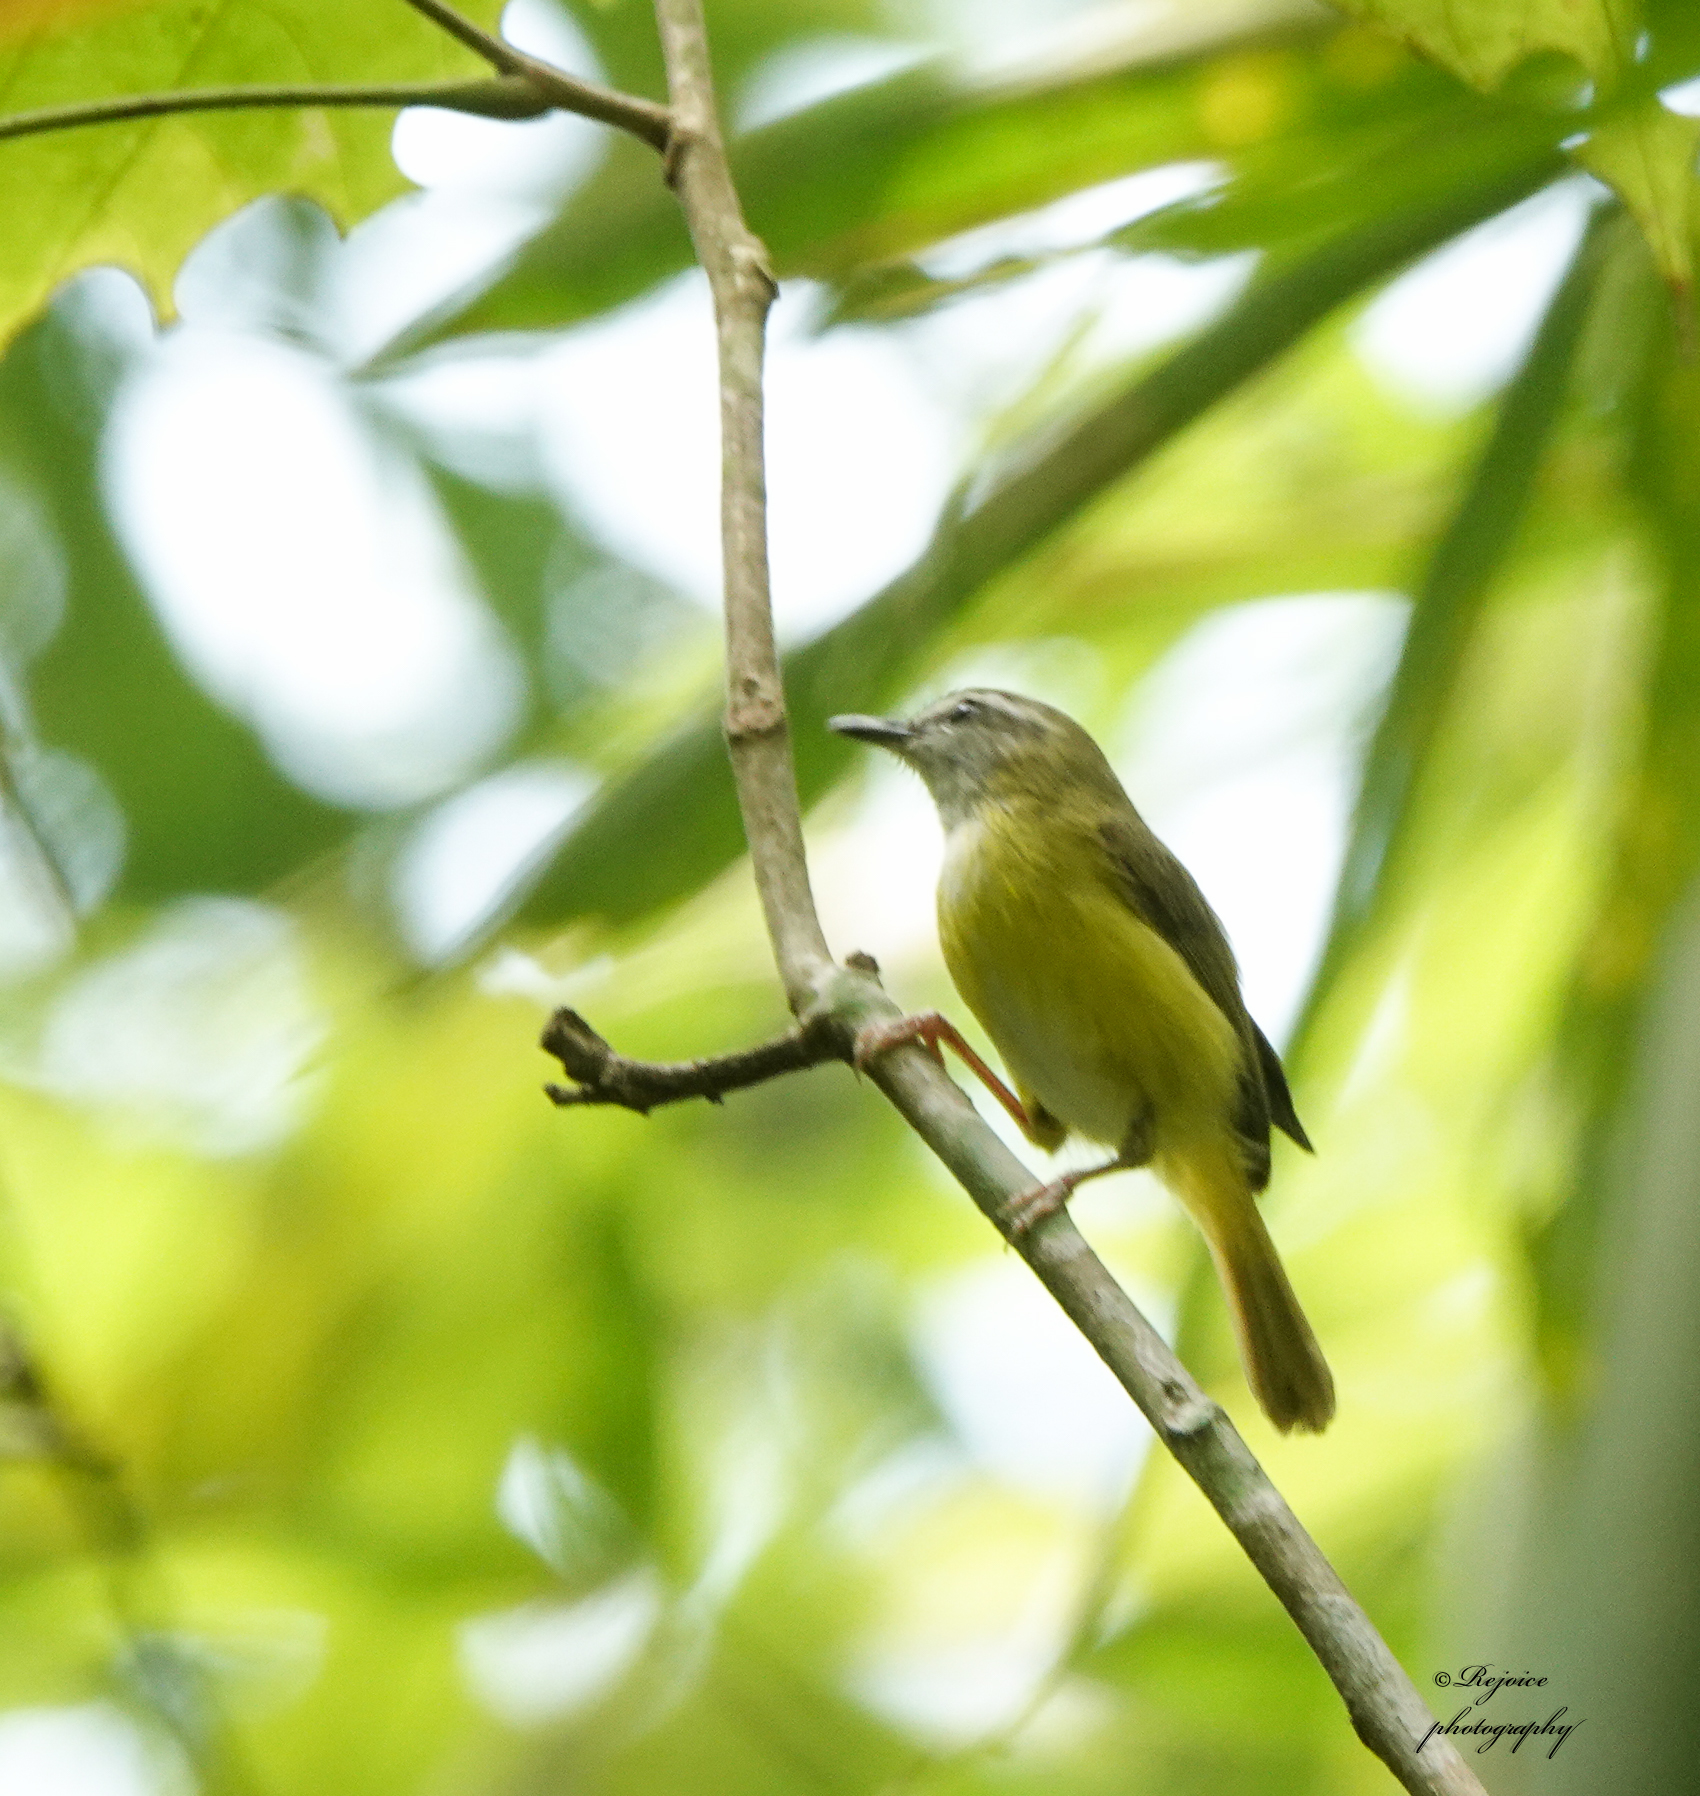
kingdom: Animalia
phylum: Chordata
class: Aves
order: Passeriformes
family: Cettiidae
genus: Abroscopus
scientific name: Abroscopus superciliaris
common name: Yellow-bellied warbler
